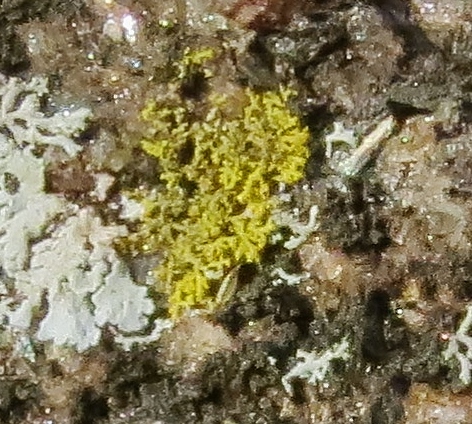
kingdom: Fungi
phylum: Ascomycota
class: Candelariomycetes
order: Candelariales
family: Candelariaceae
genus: Candelaria
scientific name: Candelaria concolor
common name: Candleflame lichen
